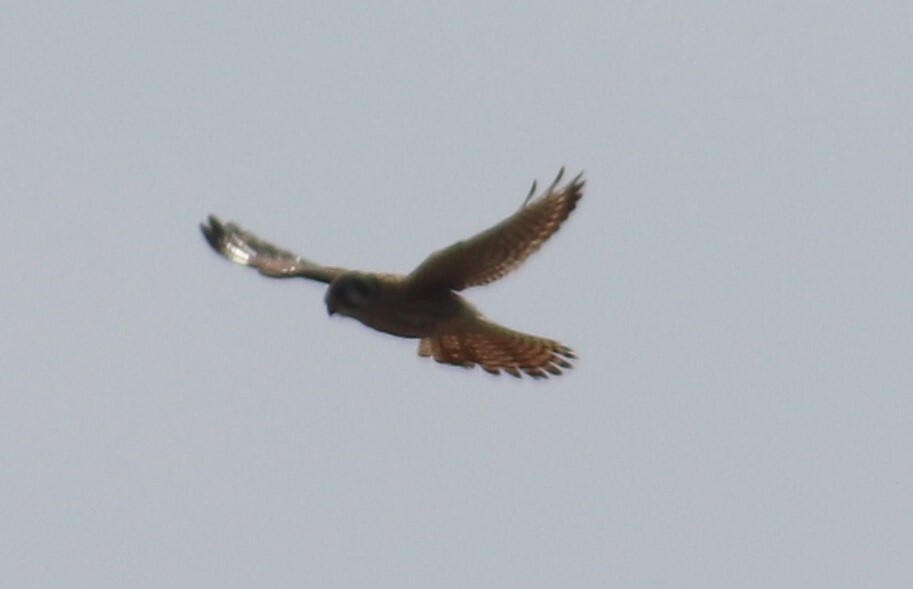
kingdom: Animalia
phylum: Chordata
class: Aves
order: Falconiformes
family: Falconidae
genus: Falco
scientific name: Falco sparverius
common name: American kestrel
